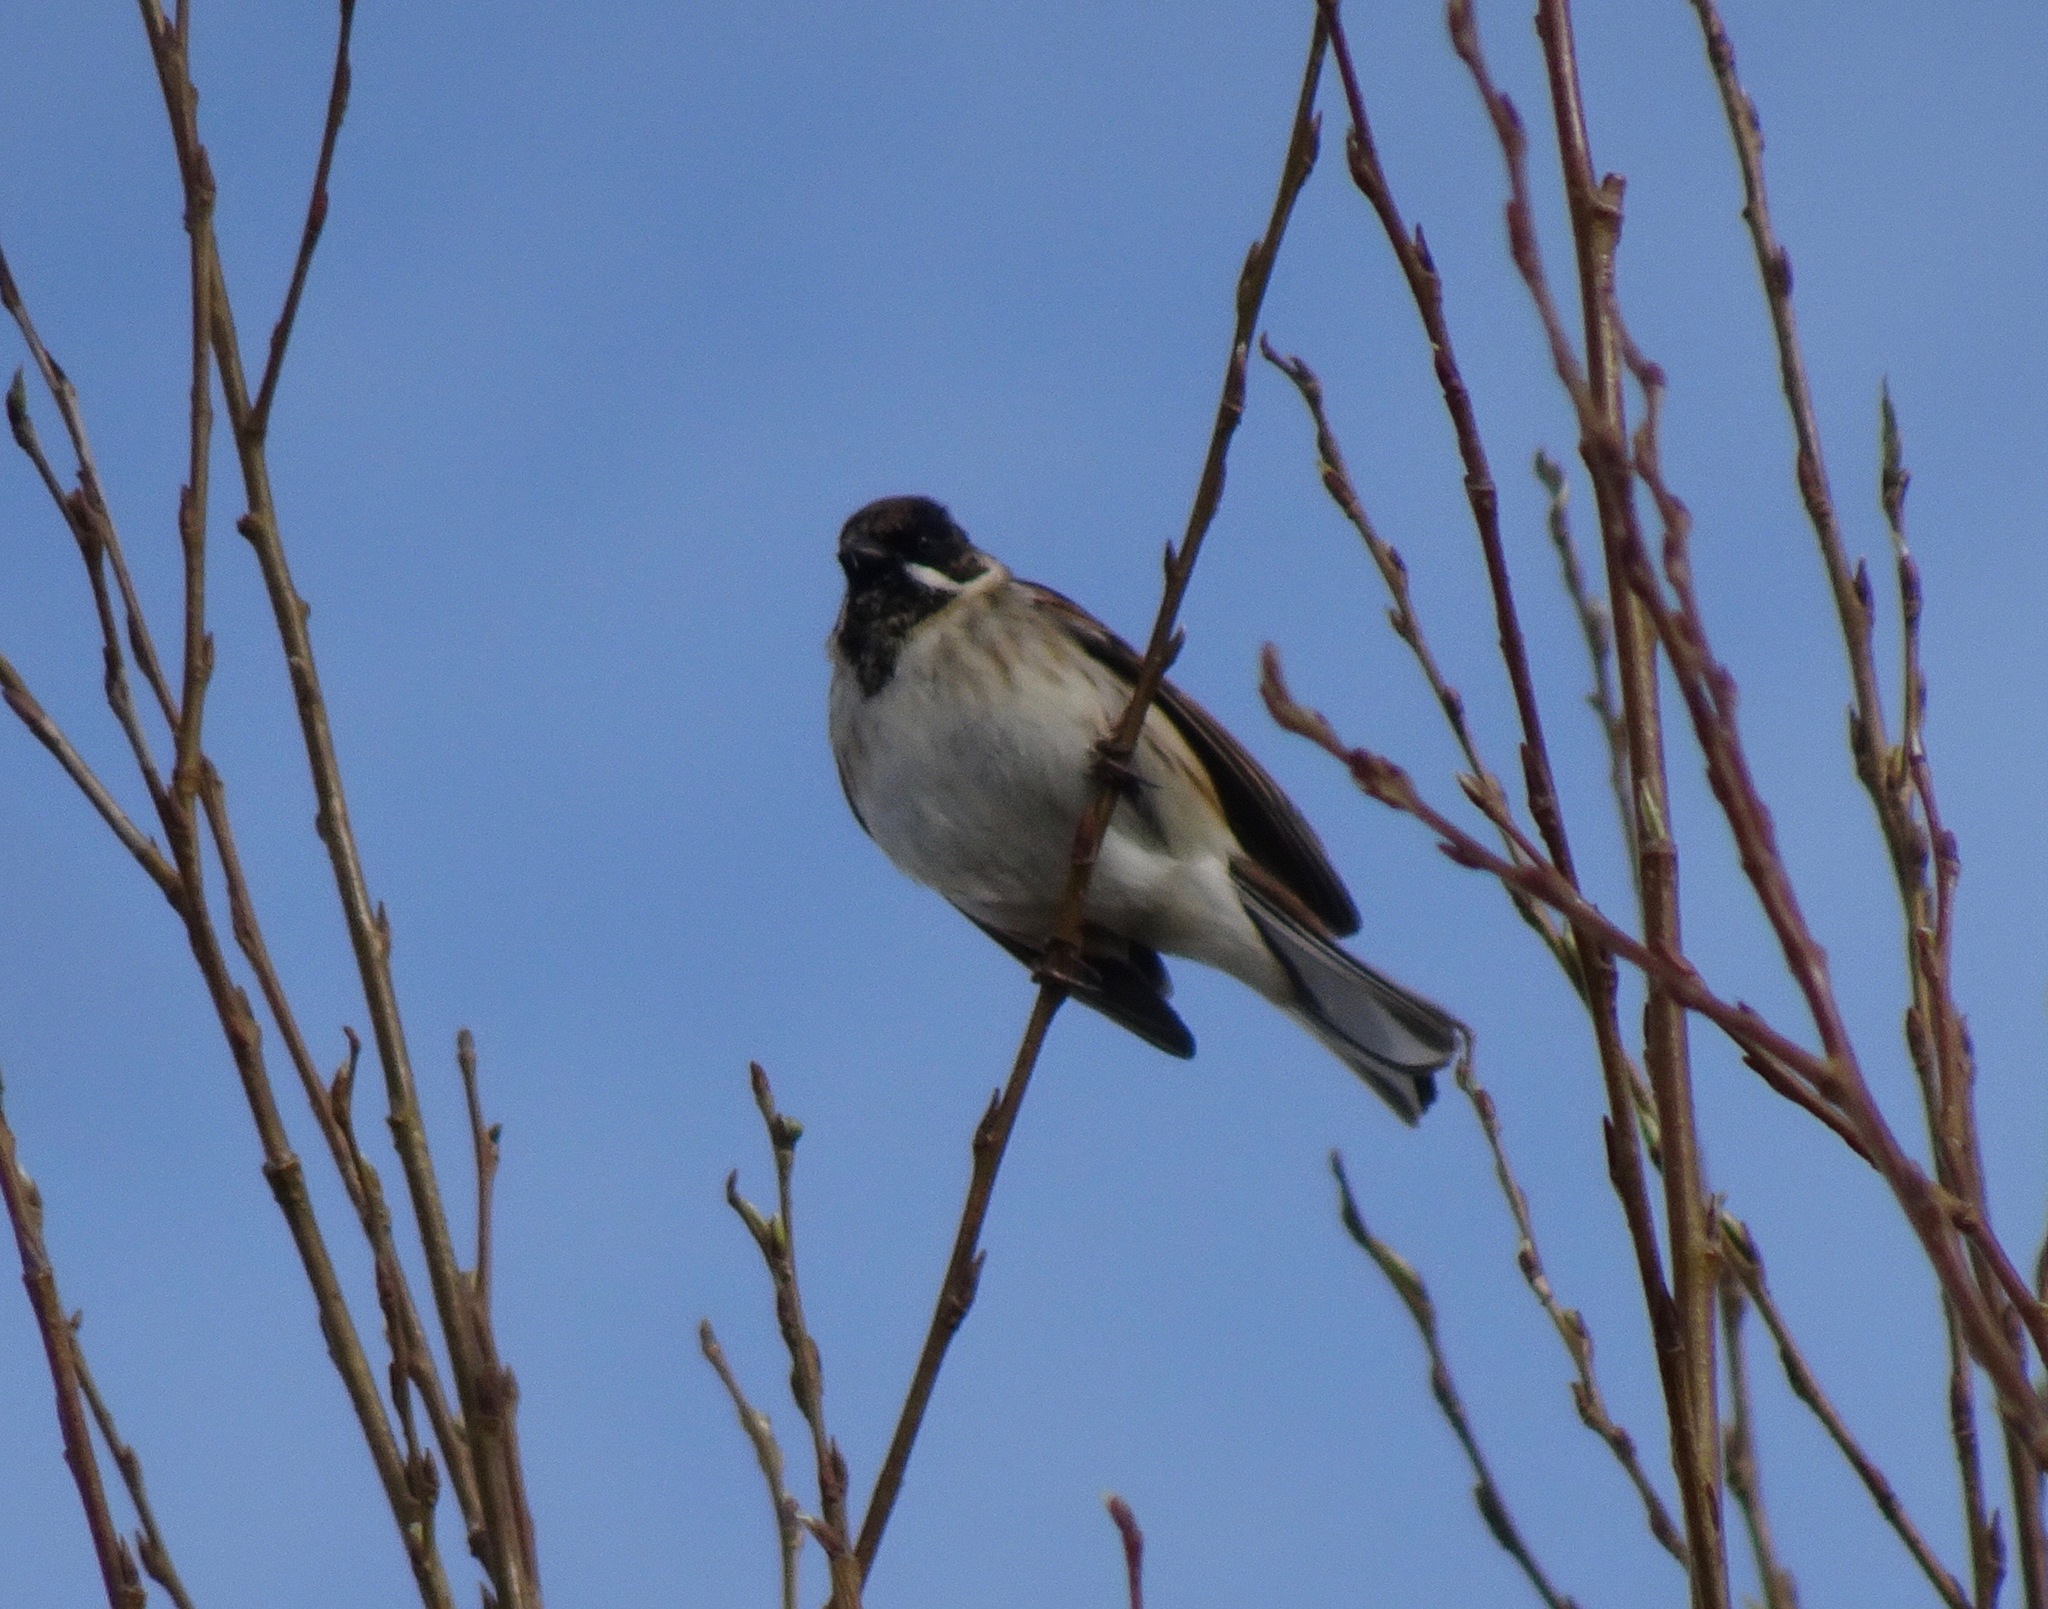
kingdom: Animalia
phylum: Chordata
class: Aves
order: Passeriformes
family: Emberizidae
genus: Emberiza
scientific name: Emberiza schoeniclus
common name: Reed bunting
